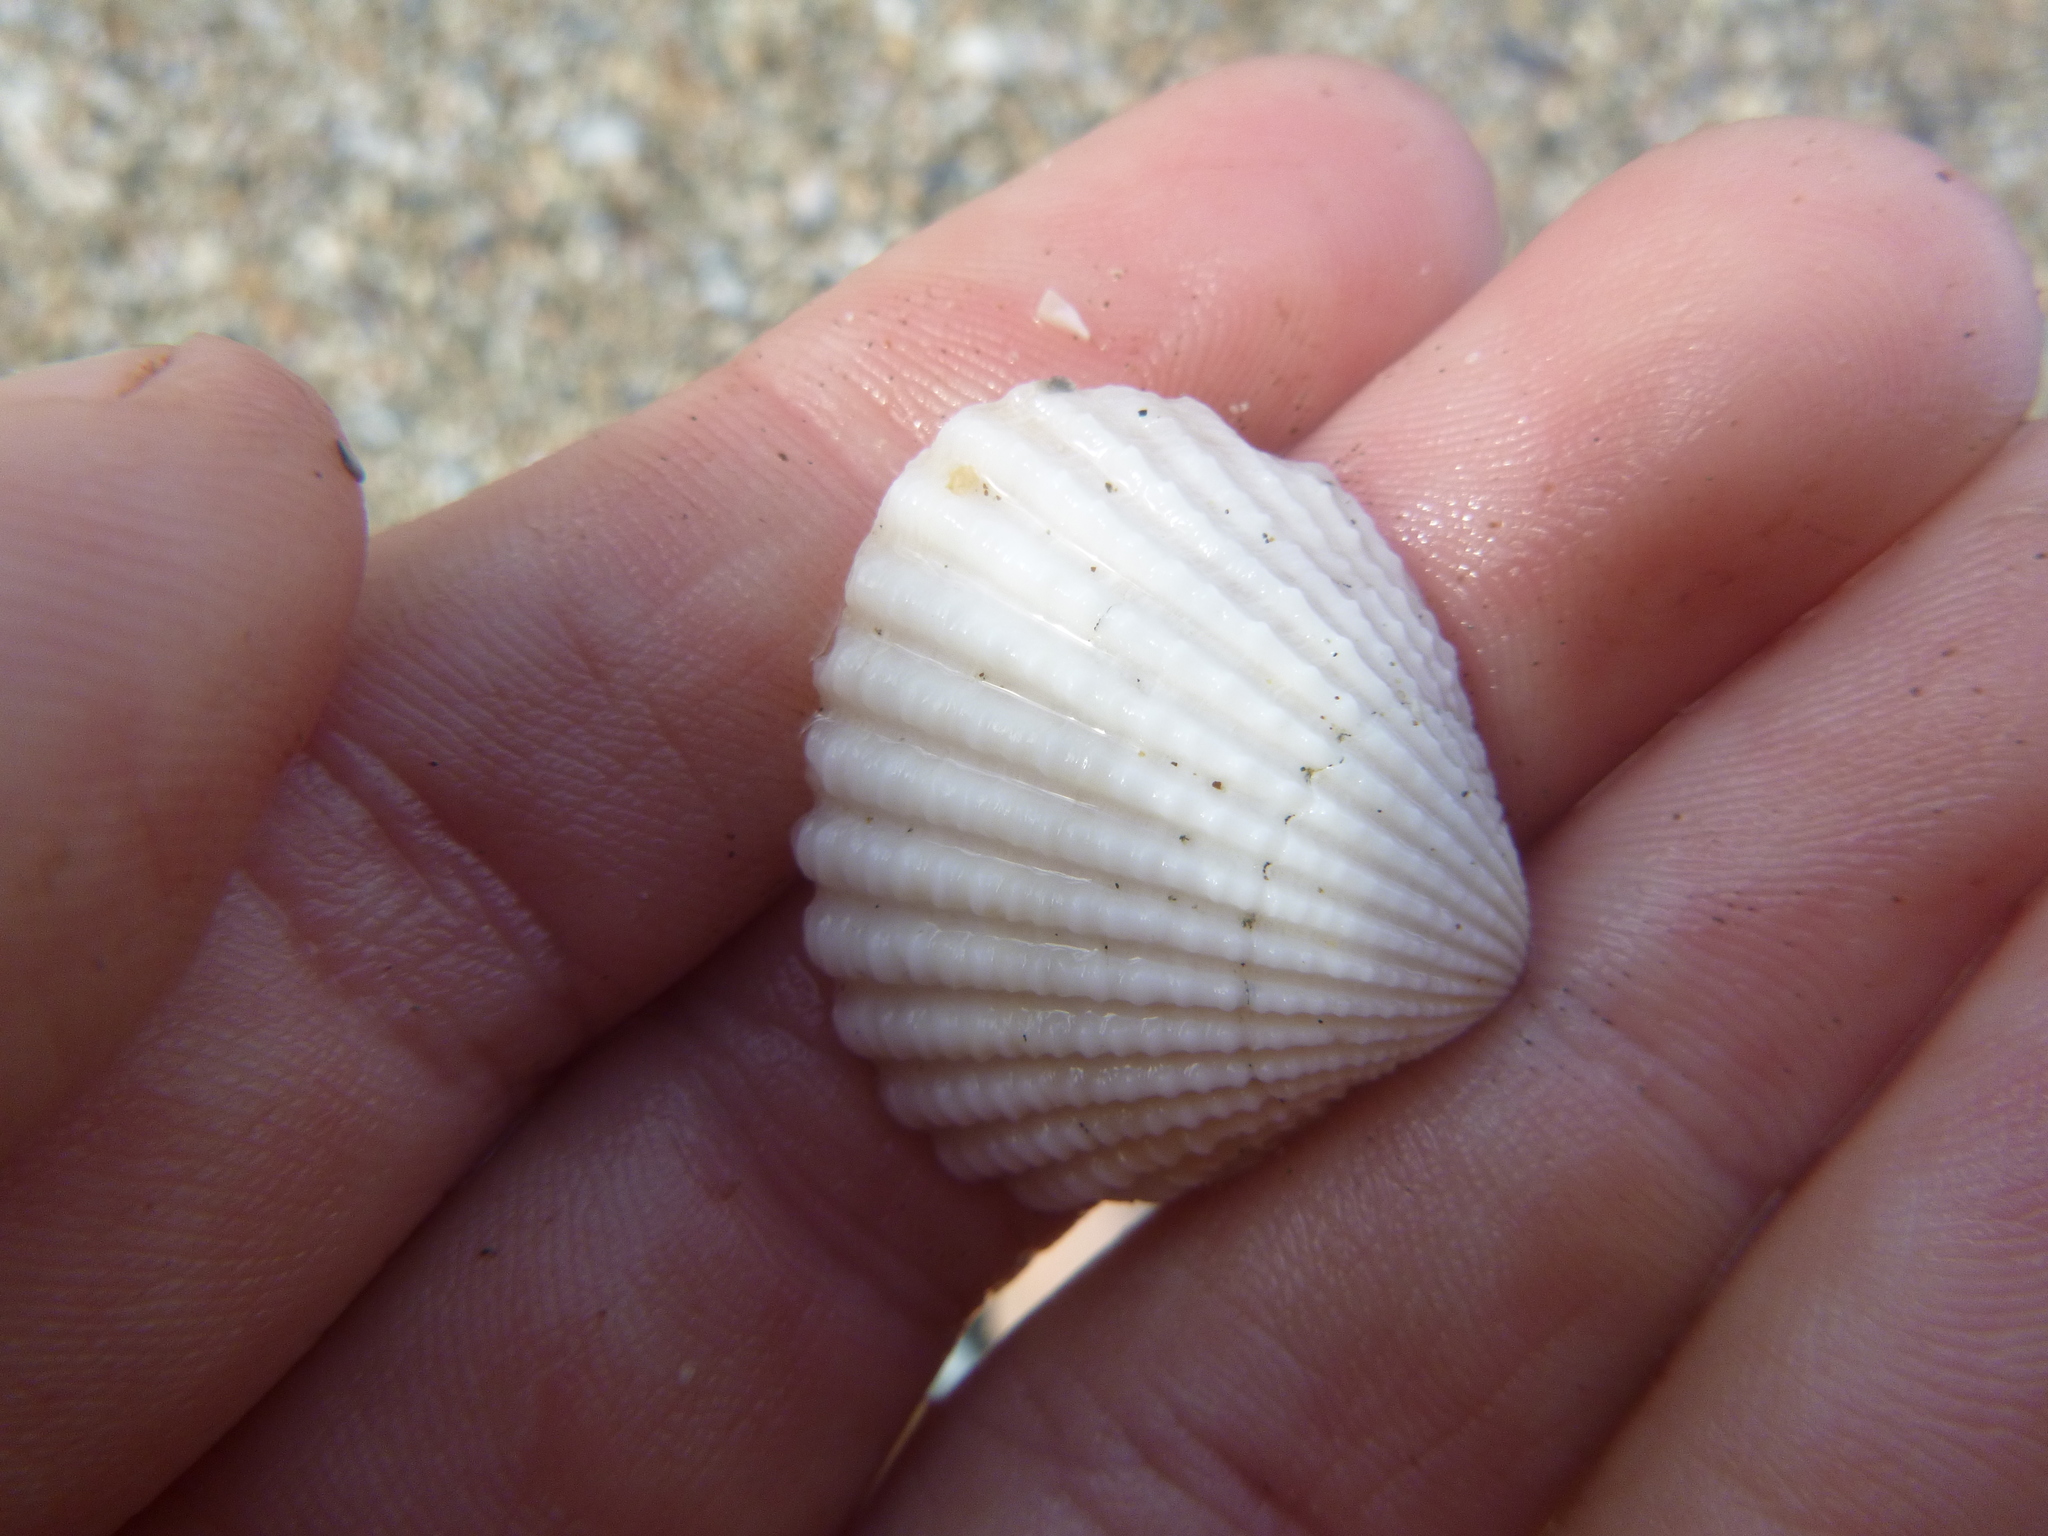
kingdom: Animalia
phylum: Mollusca
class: Bivalvia
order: Carditida
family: Carditidae
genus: Purpurocardia
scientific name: Purpurocardia purpurata
